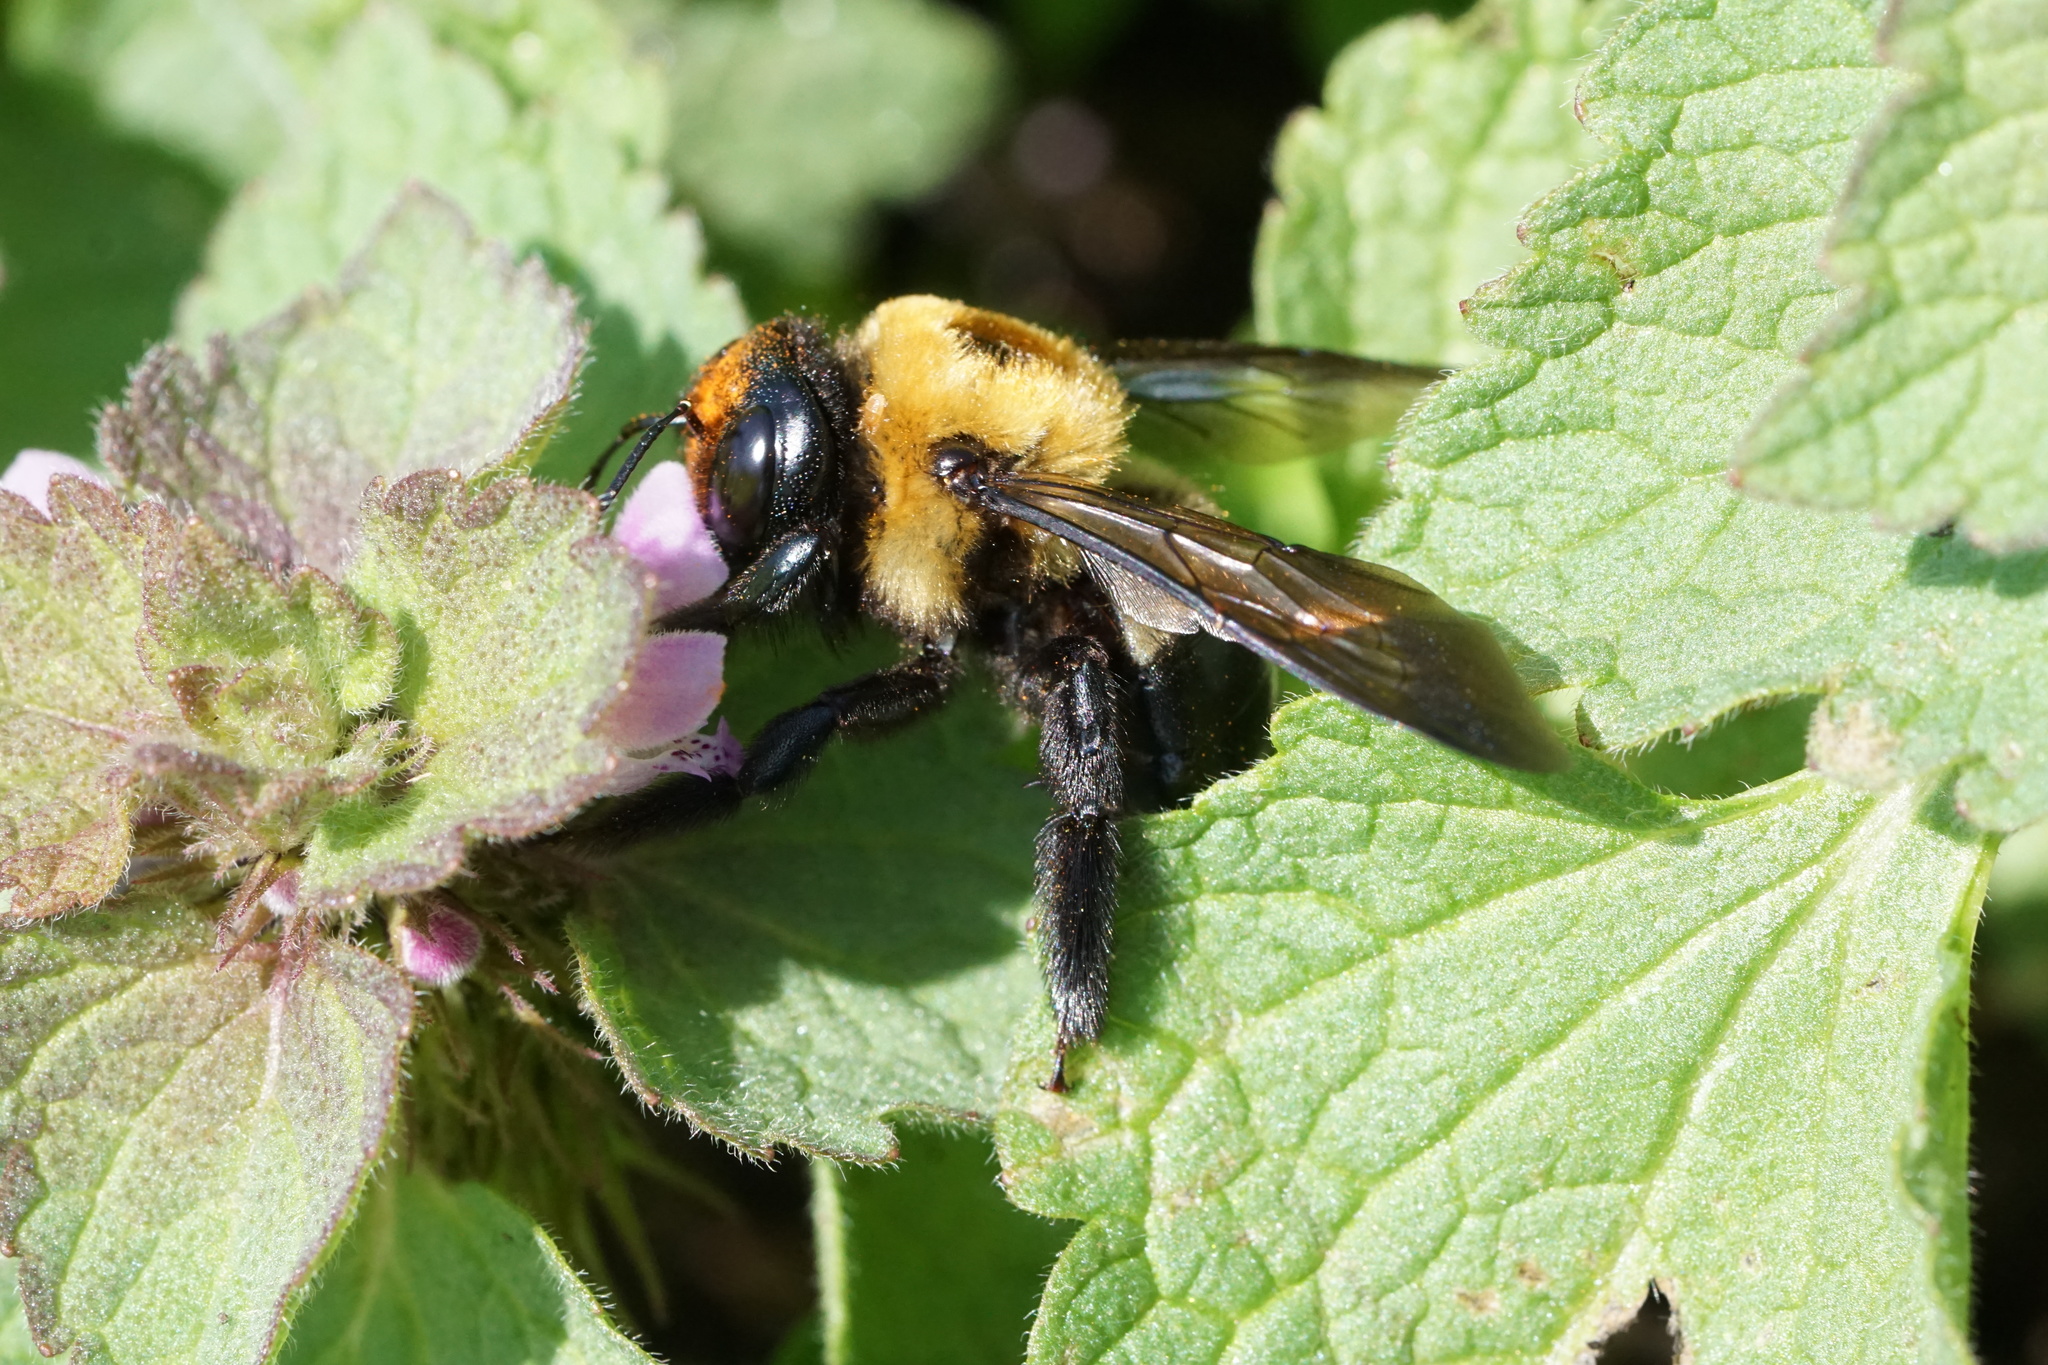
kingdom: Animalia
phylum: Arthropoda
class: Insecta
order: Hymenoptera
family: Apidae
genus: Xylocopa
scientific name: Xylocopa virginica
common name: Carpenter bee
